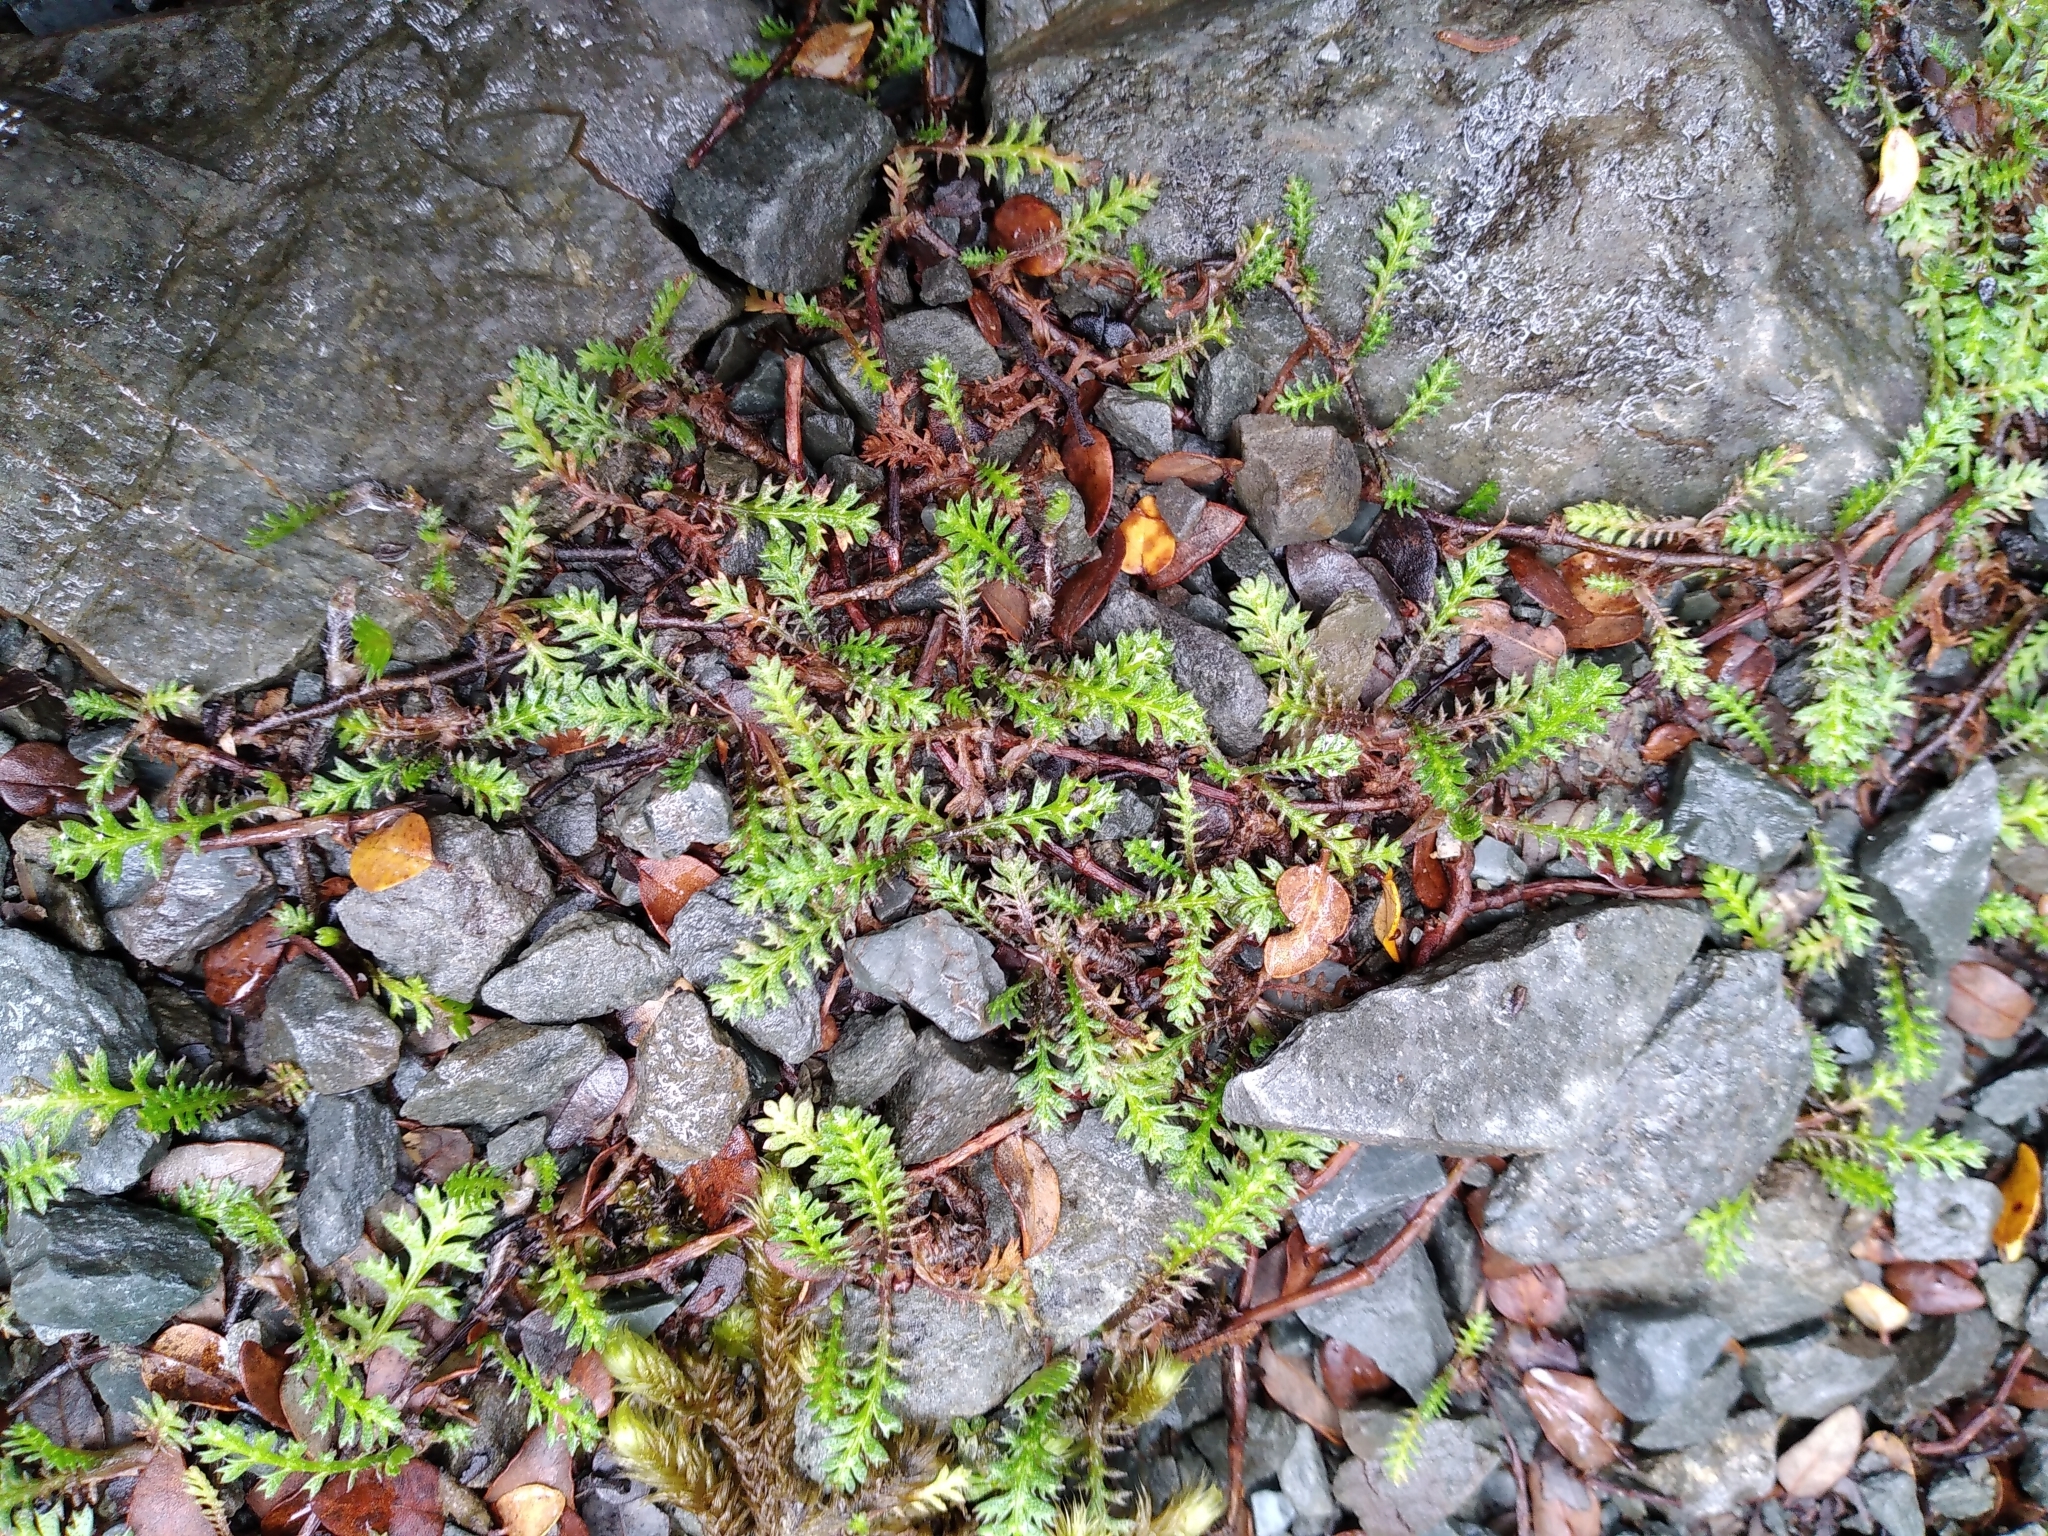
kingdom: Plantae
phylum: Tracheophyta
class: Magnoliopsida
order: Asterales
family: Asteraceae
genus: Leptinella
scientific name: Leptinella squalida
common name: New zealand brass-buttons
